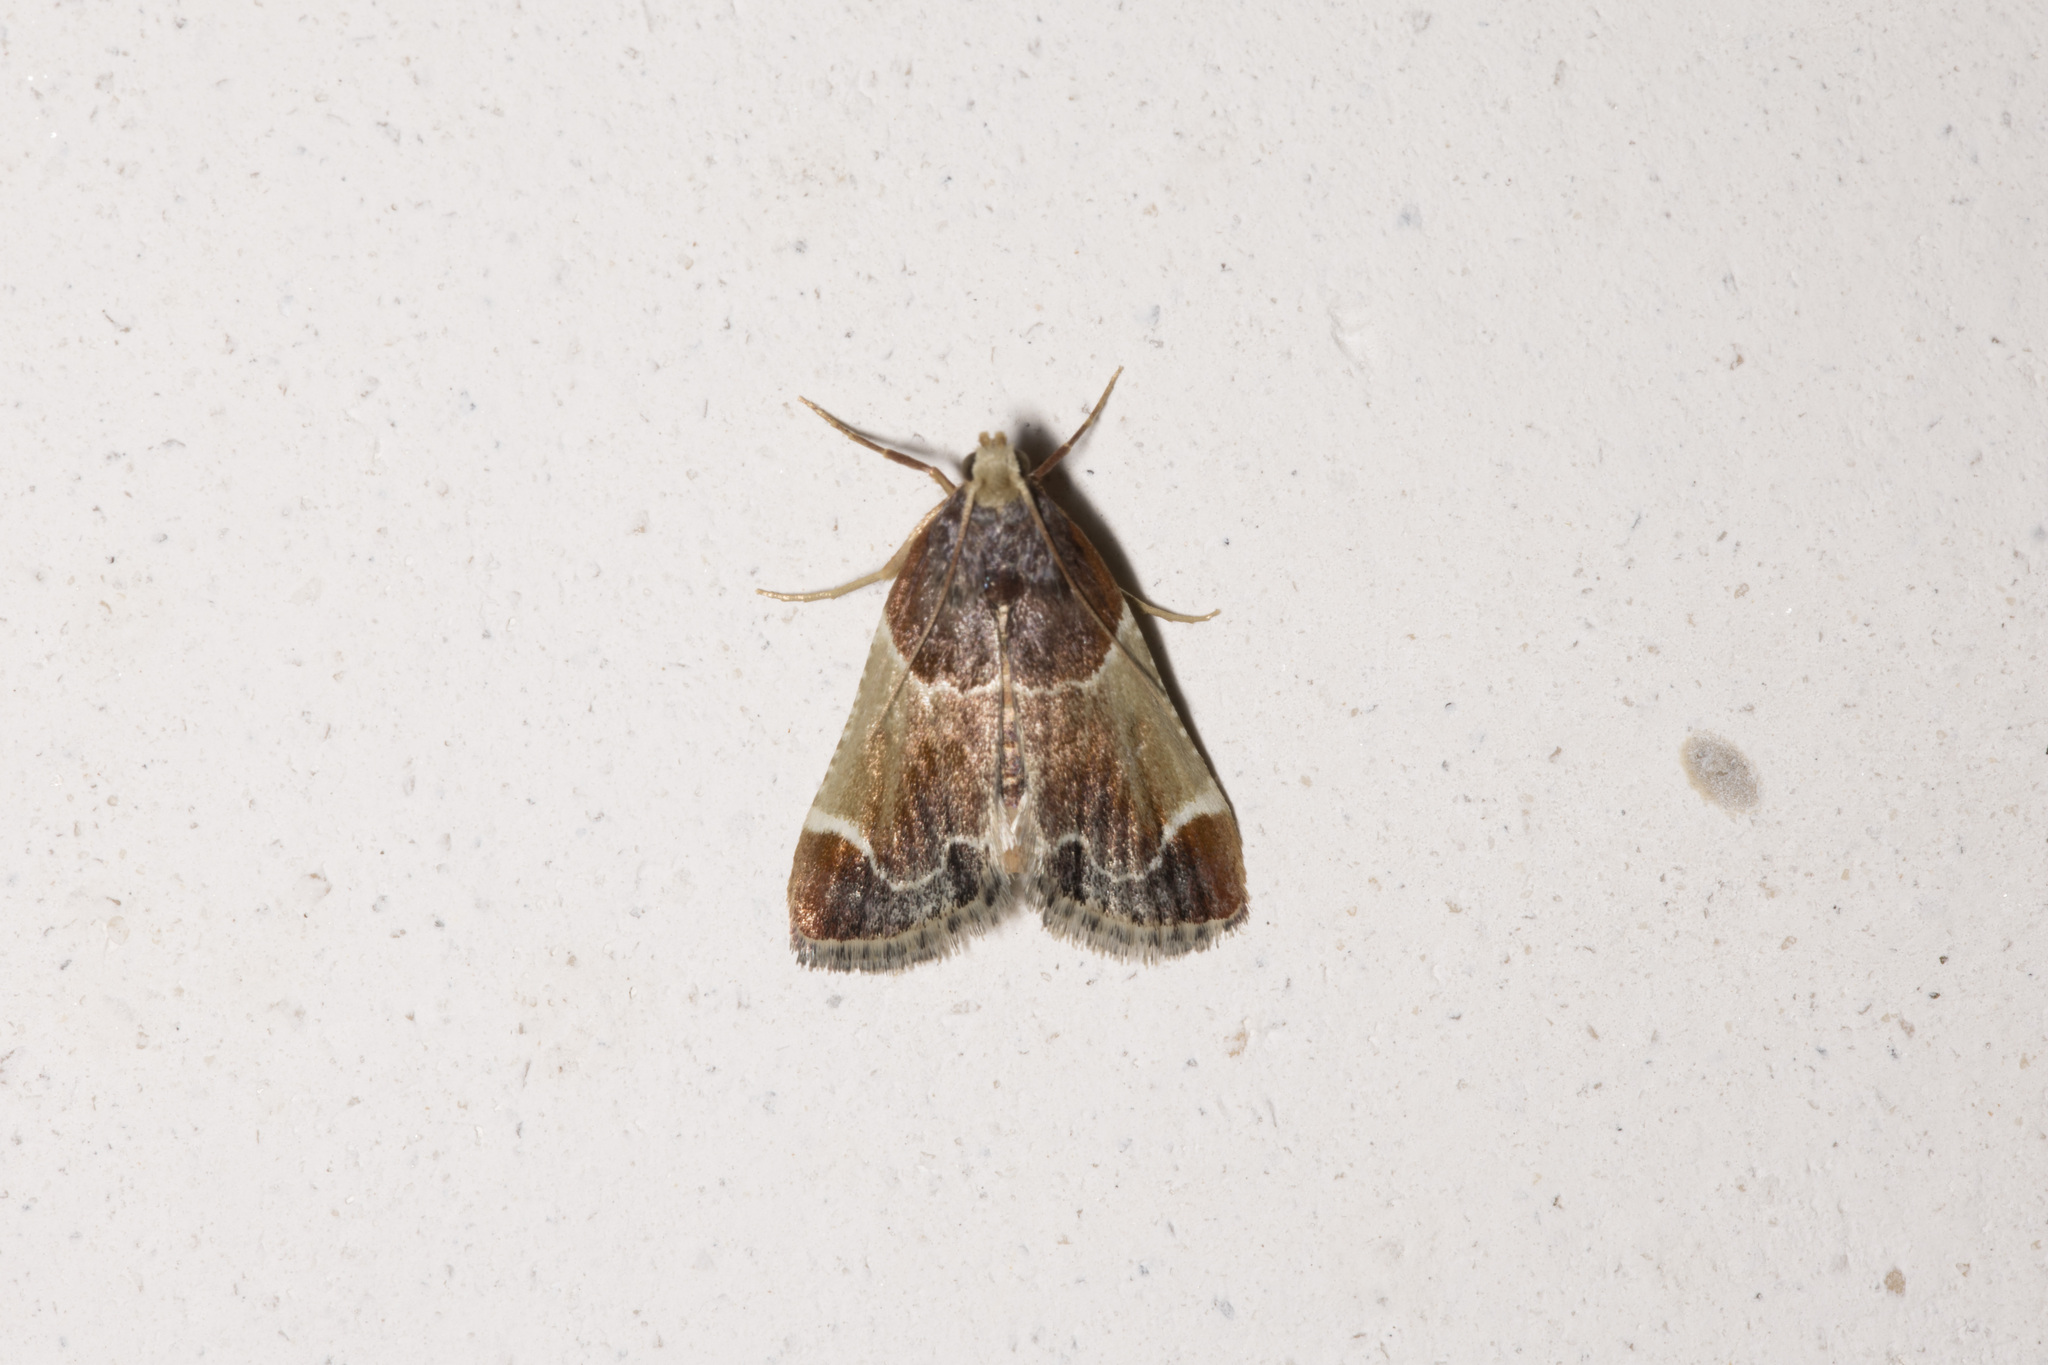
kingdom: Animalia
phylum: Arthropoda
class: Insecta
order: Lepidoptera
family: Pyralidae
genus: Pyralis
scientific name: Pyralis farinalis
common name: Meal moth
